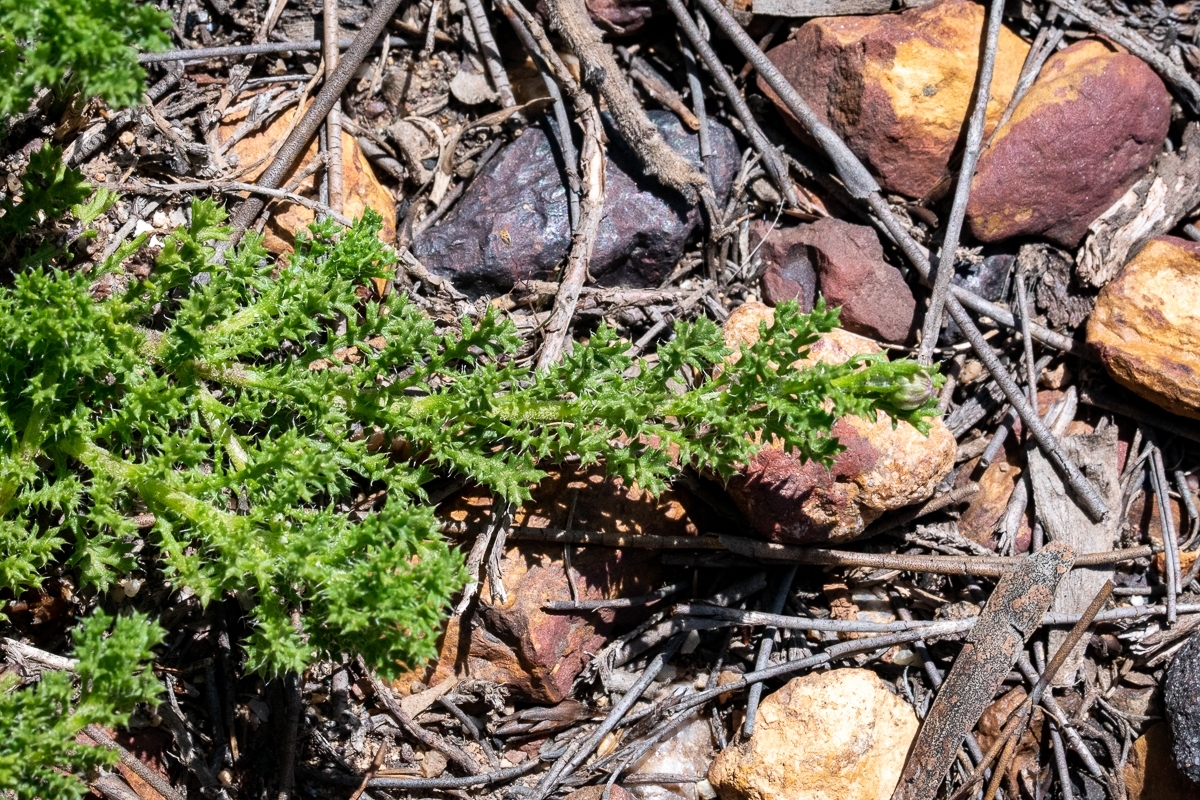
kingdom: Plantae
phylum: Tracheophyta
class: Magnoliopsida
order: Asterales
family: Asteraceae
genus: Ursinia
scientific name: Ursinia dentata
